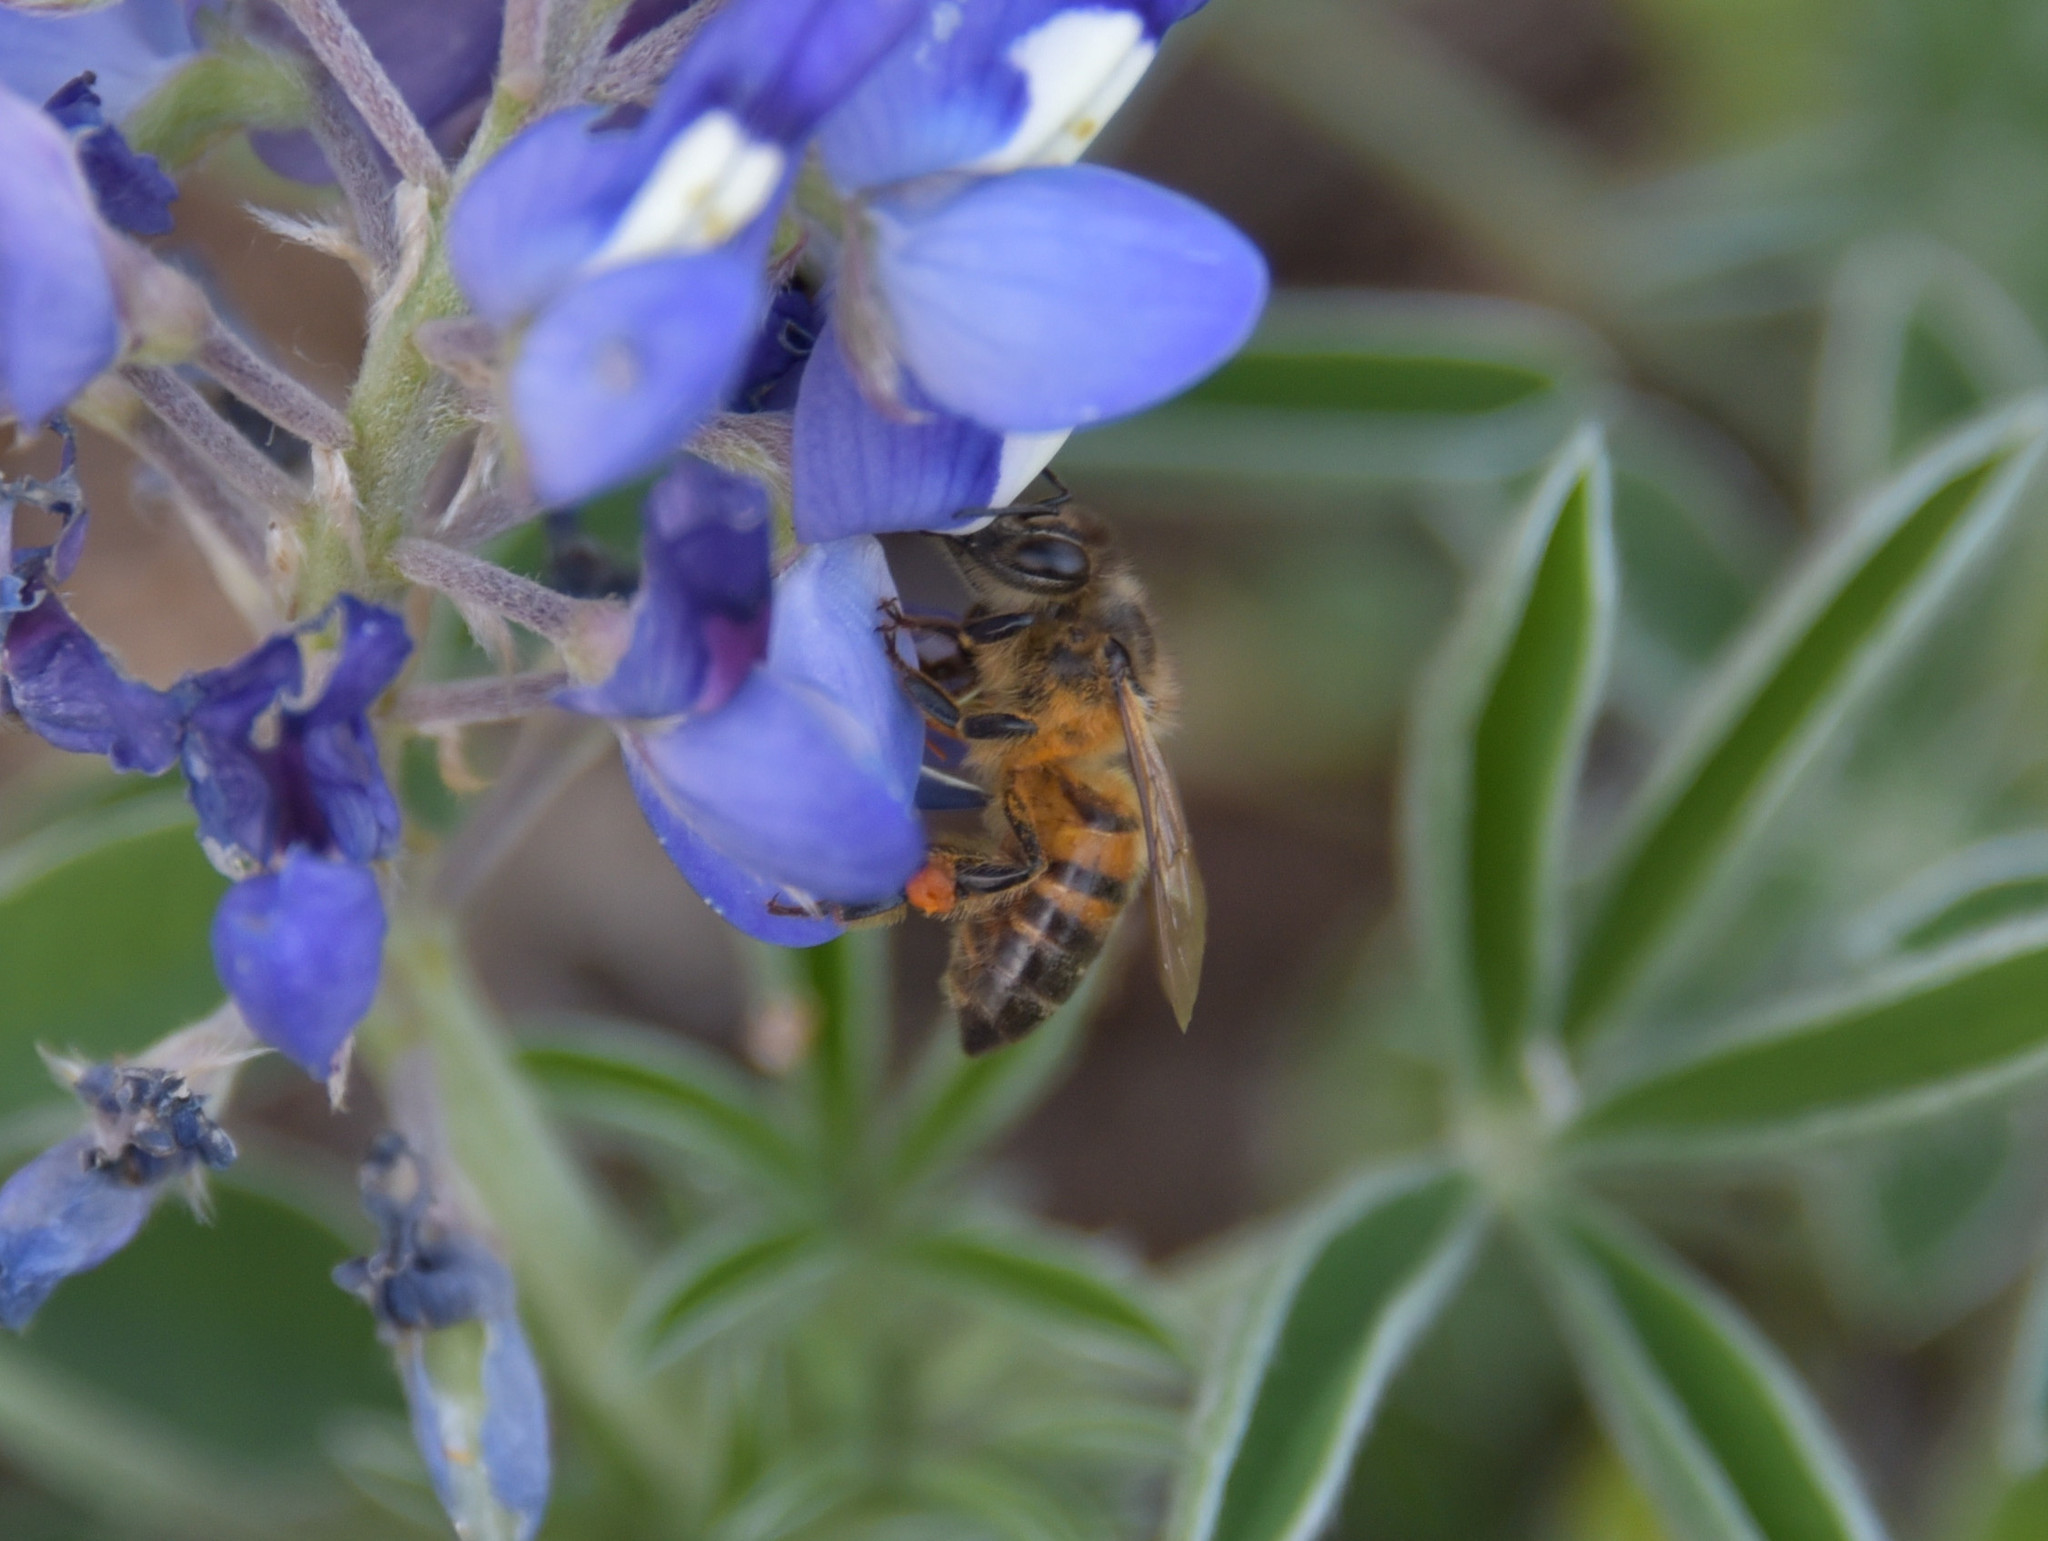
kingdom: Animalia
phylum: Arthropoda
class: Insecta
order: Hymenoptera
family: Apidae
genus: Apis
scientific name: Apis mellifera
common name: Honey bee
